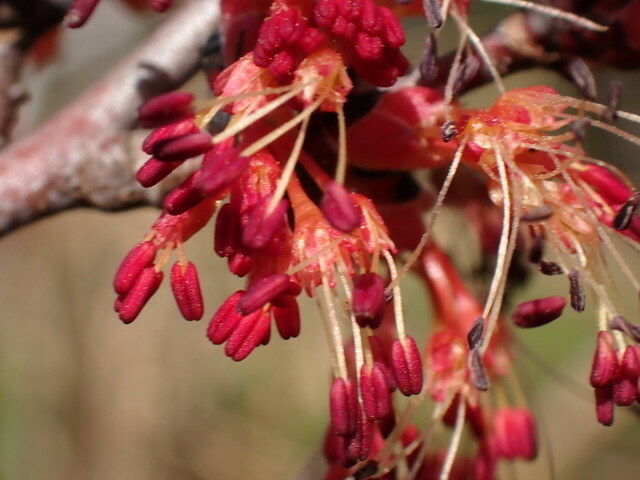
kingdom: Plantae
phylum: Tracheophyta
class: Magnoliopsida
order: Sapindales
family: Sapindaceae
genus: Acer
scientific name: Acer rubrum
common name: Red maple
